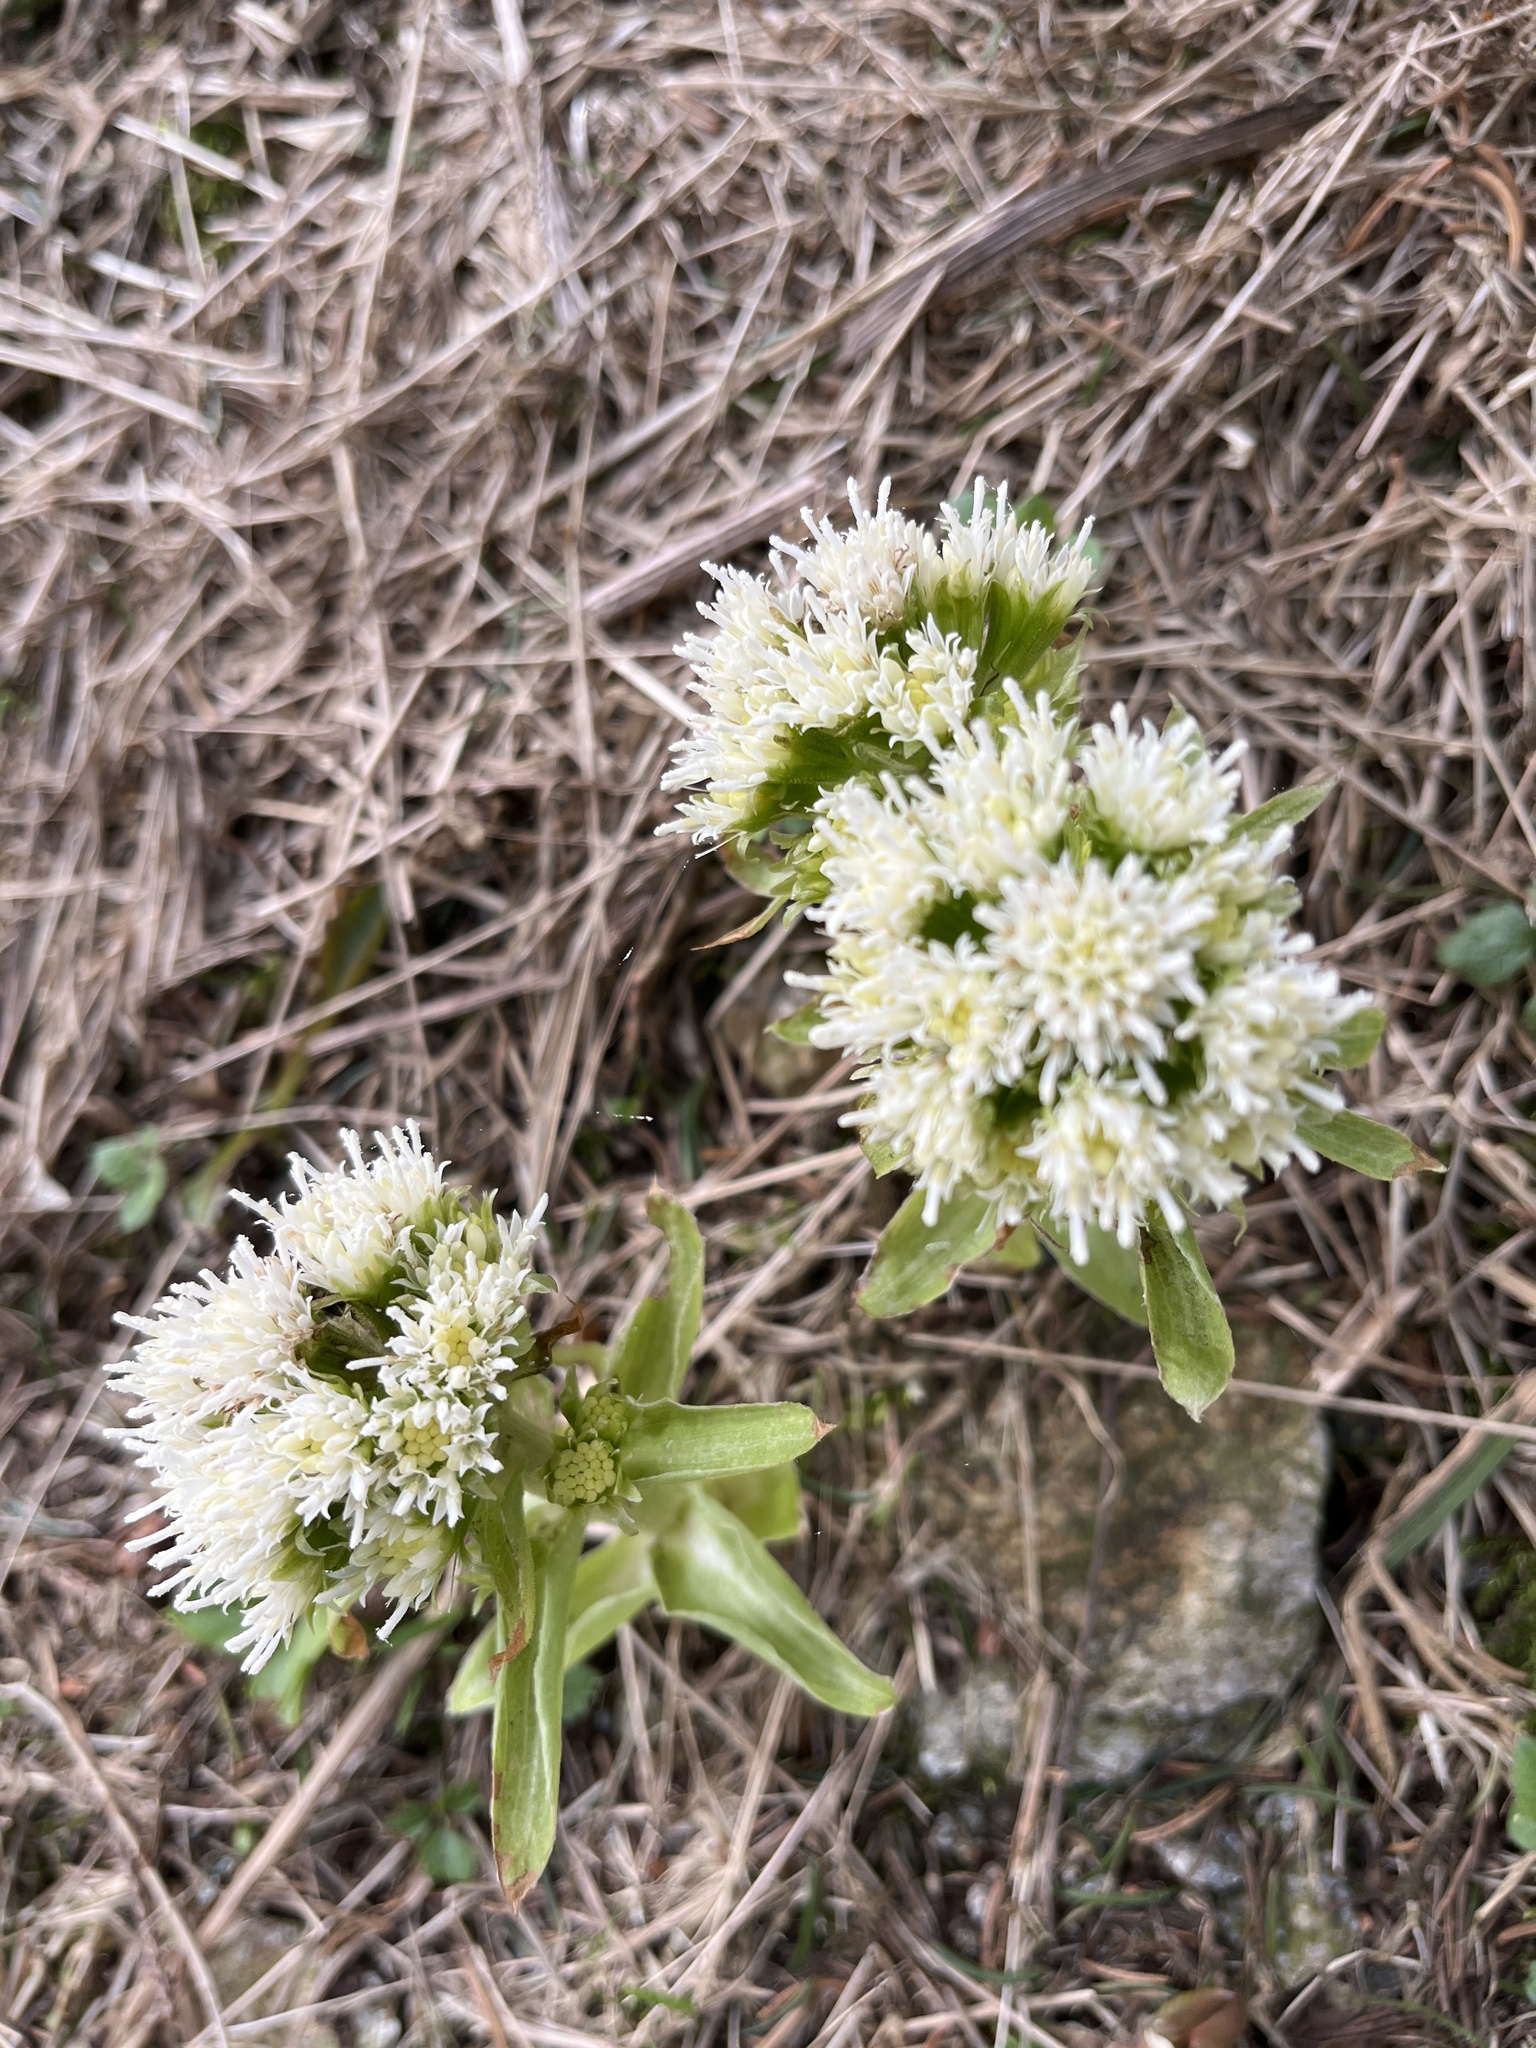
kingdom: Plantae
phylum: Tracheophyta
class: Magnoliopsida
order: Asterales
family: Asteraceae
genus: Petasites
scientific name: Petasites albus
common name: White butterbur
